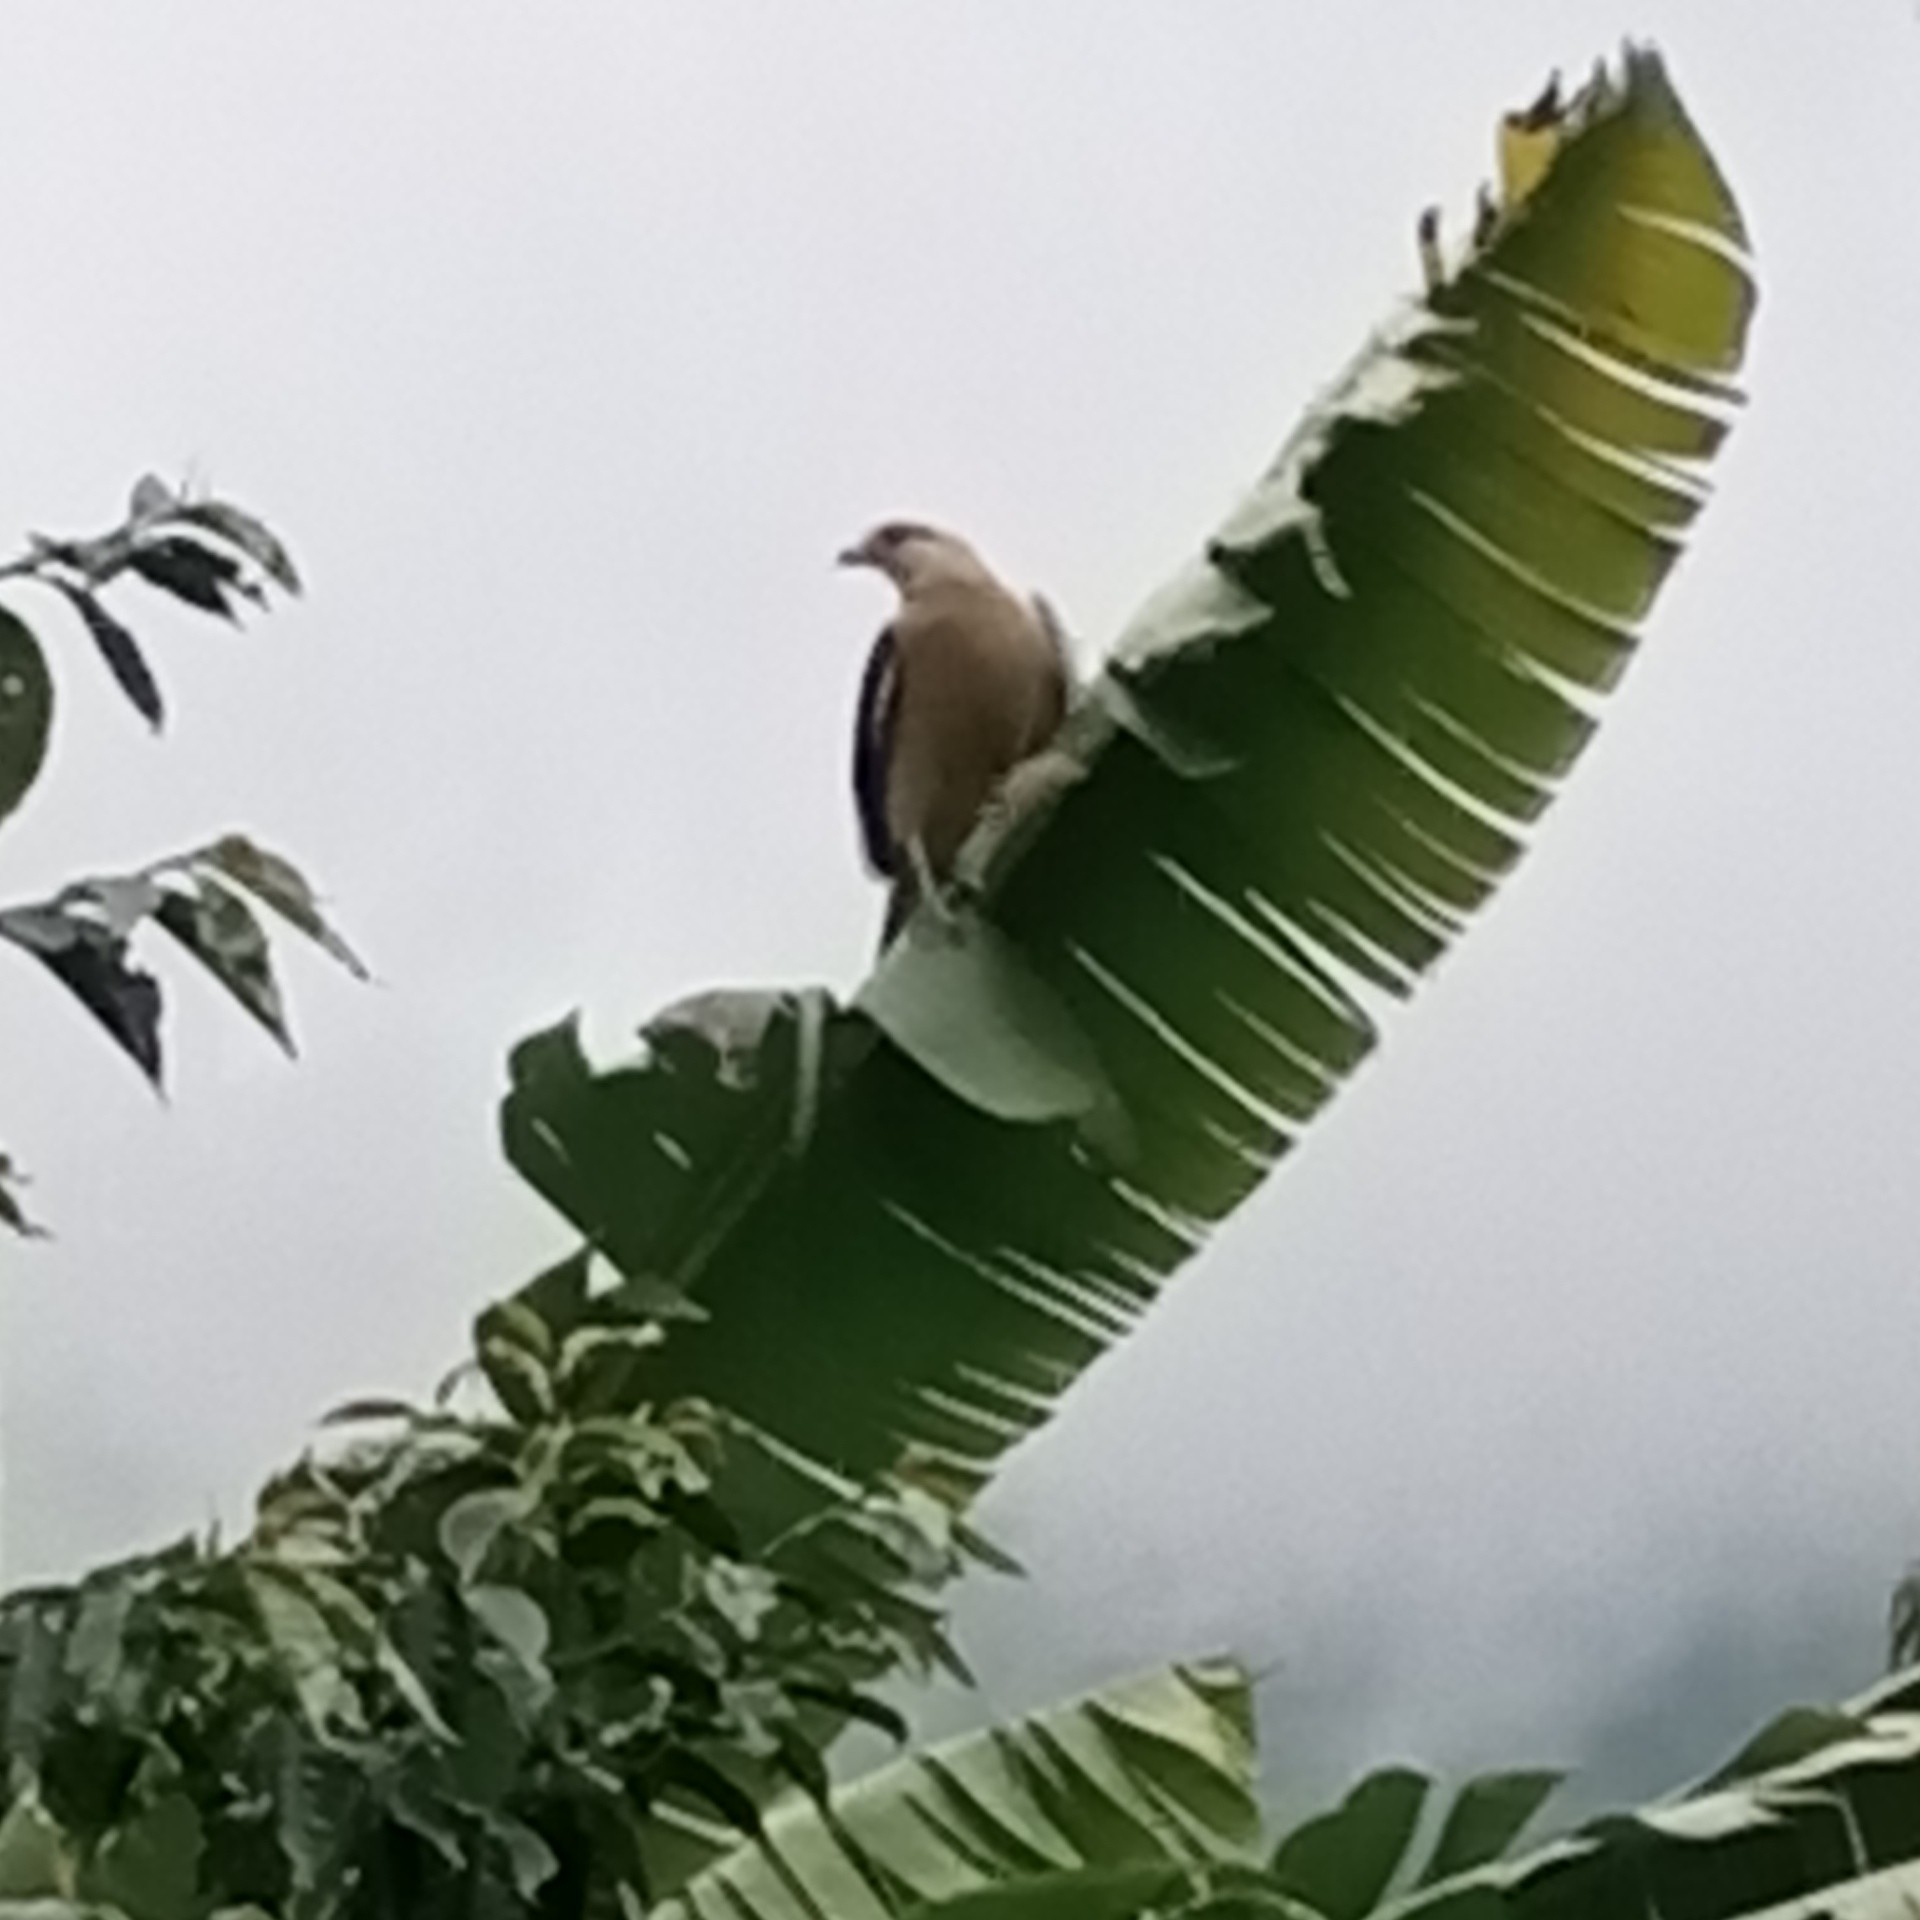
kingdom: Animalia
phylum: Chordata
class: Aves
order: Falconiformes
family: Falconidae
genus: Daptrius
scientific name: Daptrius
